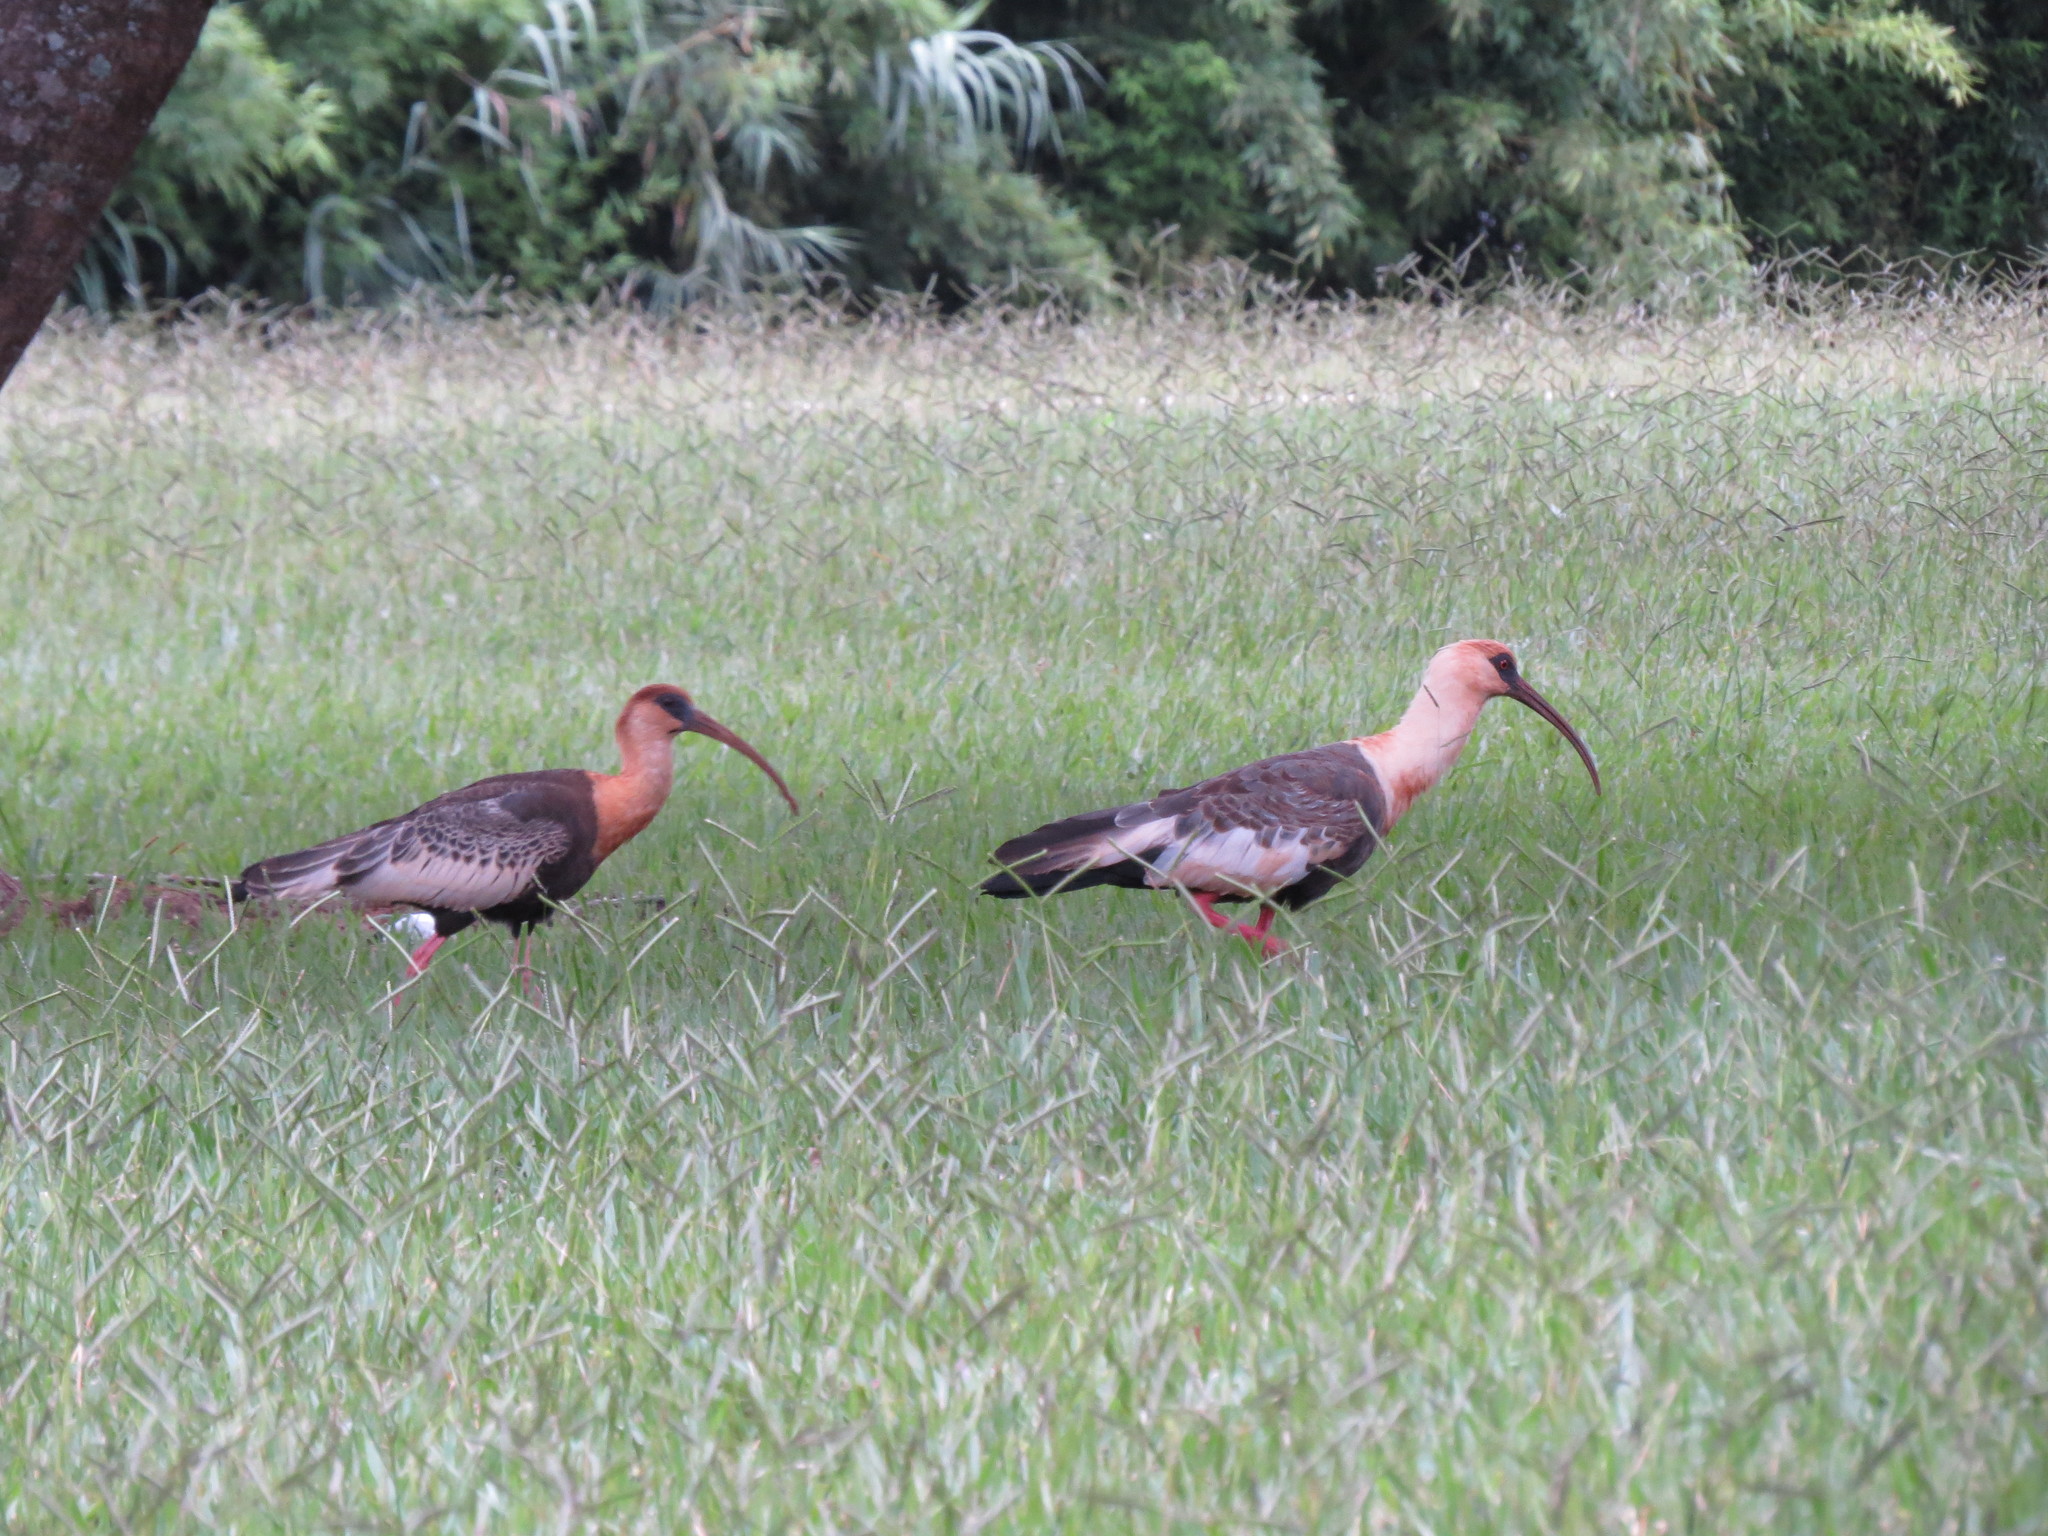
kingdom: Animalia
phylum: Chordata
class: Aves
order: Pelecaniformes
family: Threskiornithidae
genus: Theristicus
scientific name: Theristicus caudatus
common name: Buff-necked ibis
